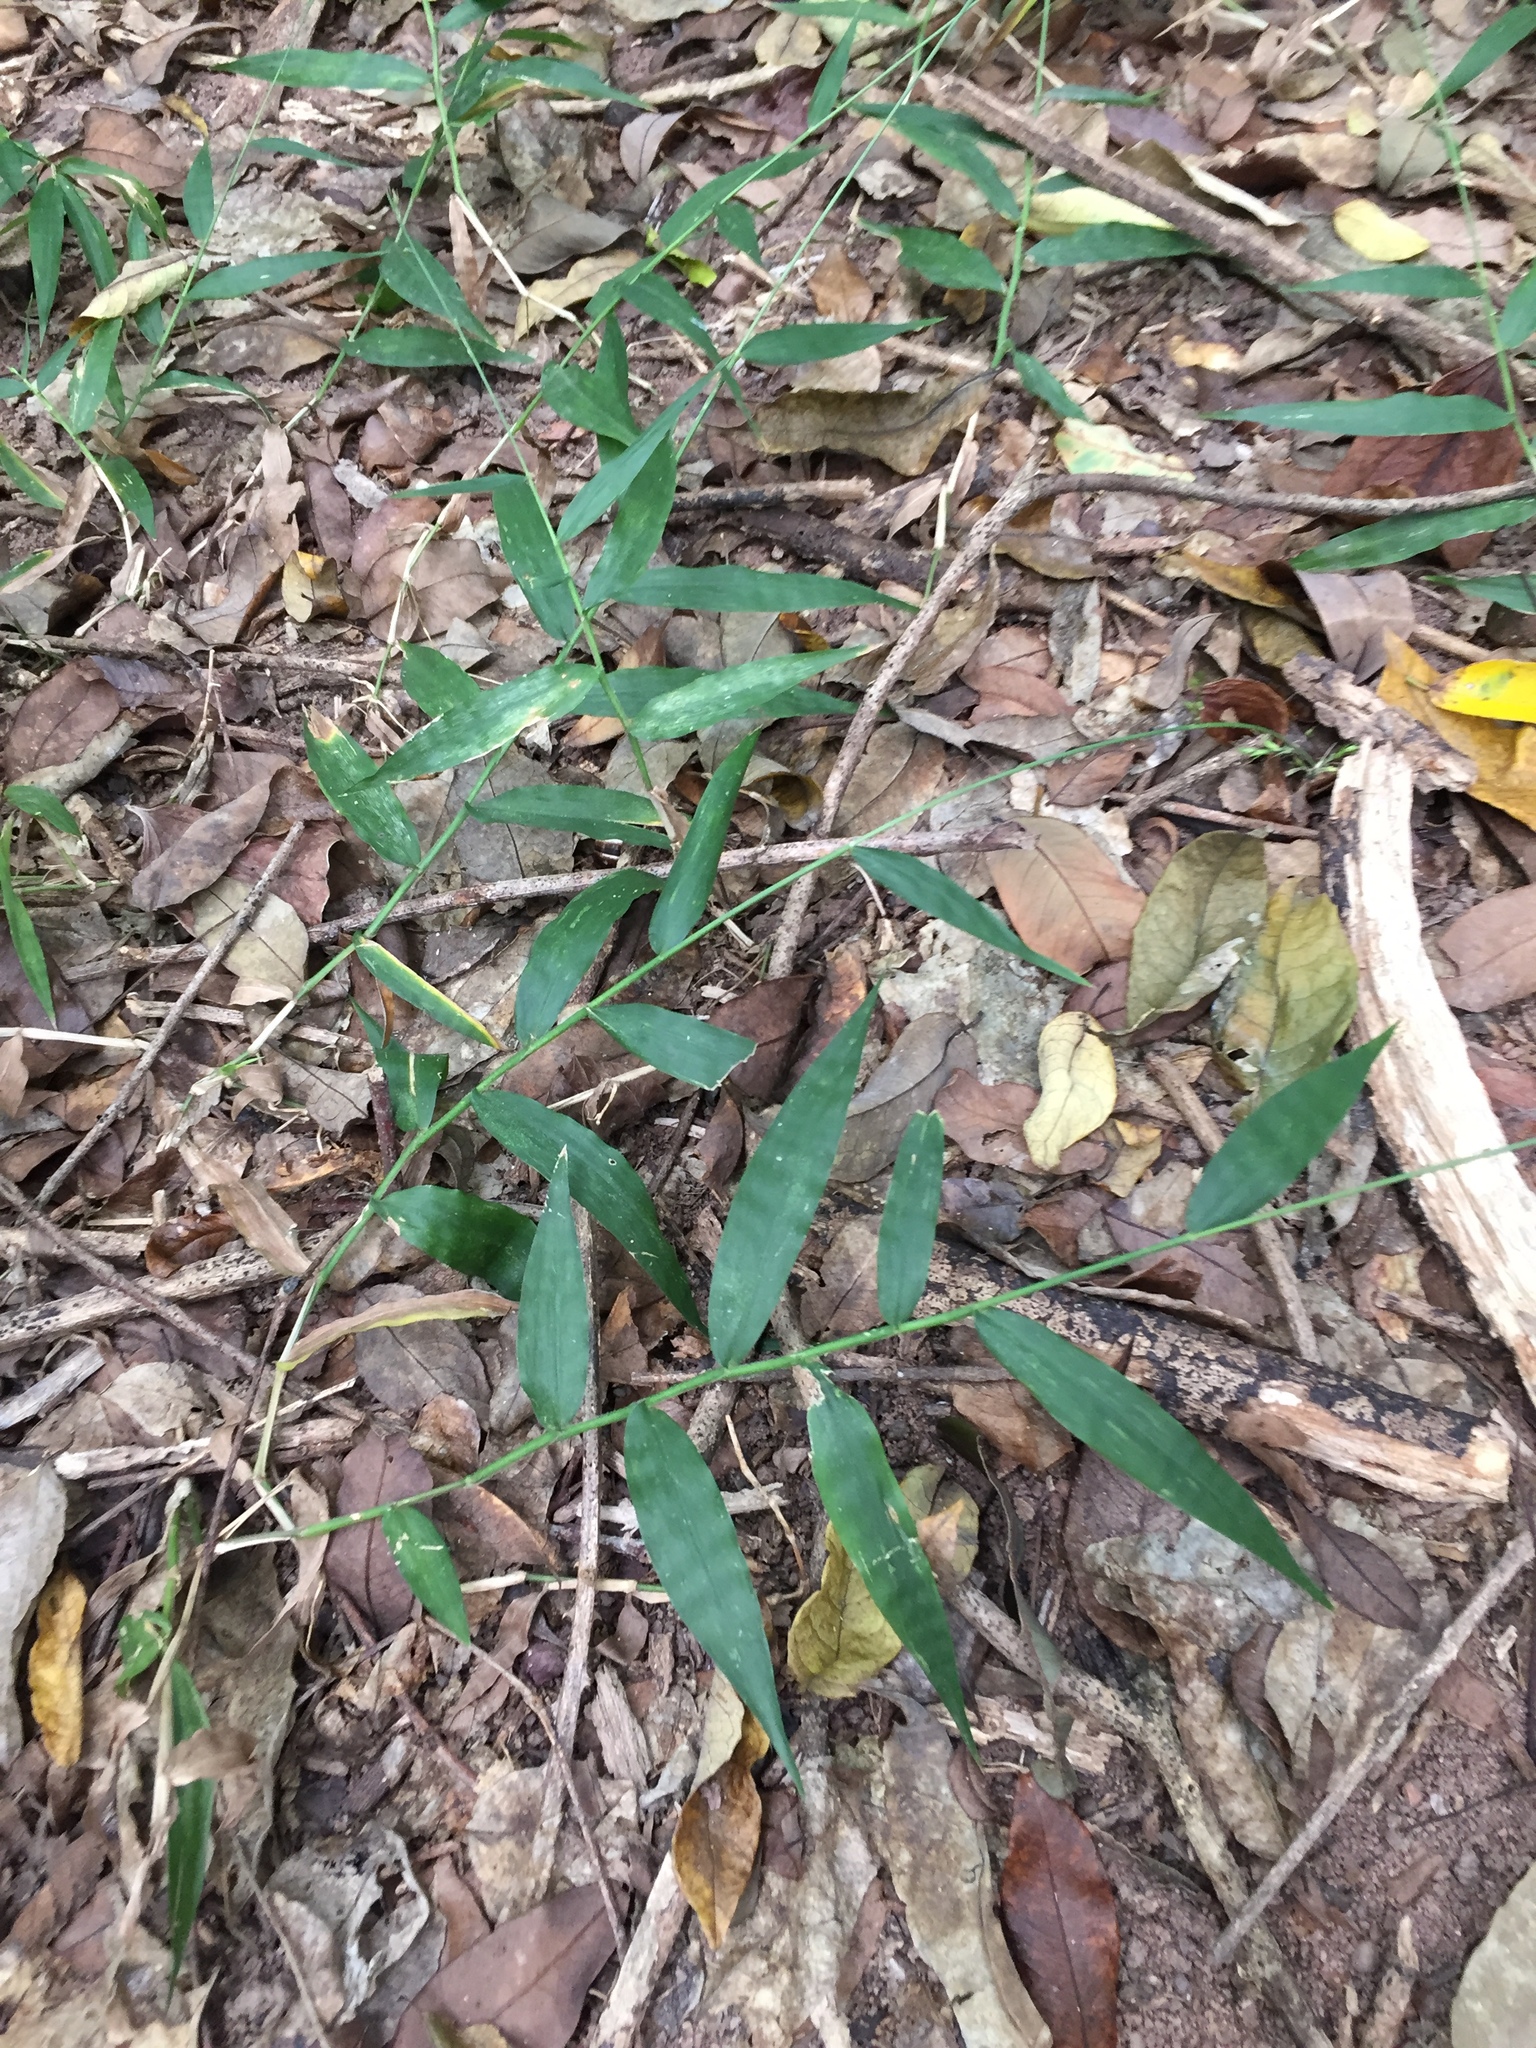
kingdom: Plantae
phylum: Tracheophyta
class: Liliopsida
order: Poales
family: Poaceae
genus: Oplismenus
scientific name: Oplismenus hirtellus
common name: Basketgrass
